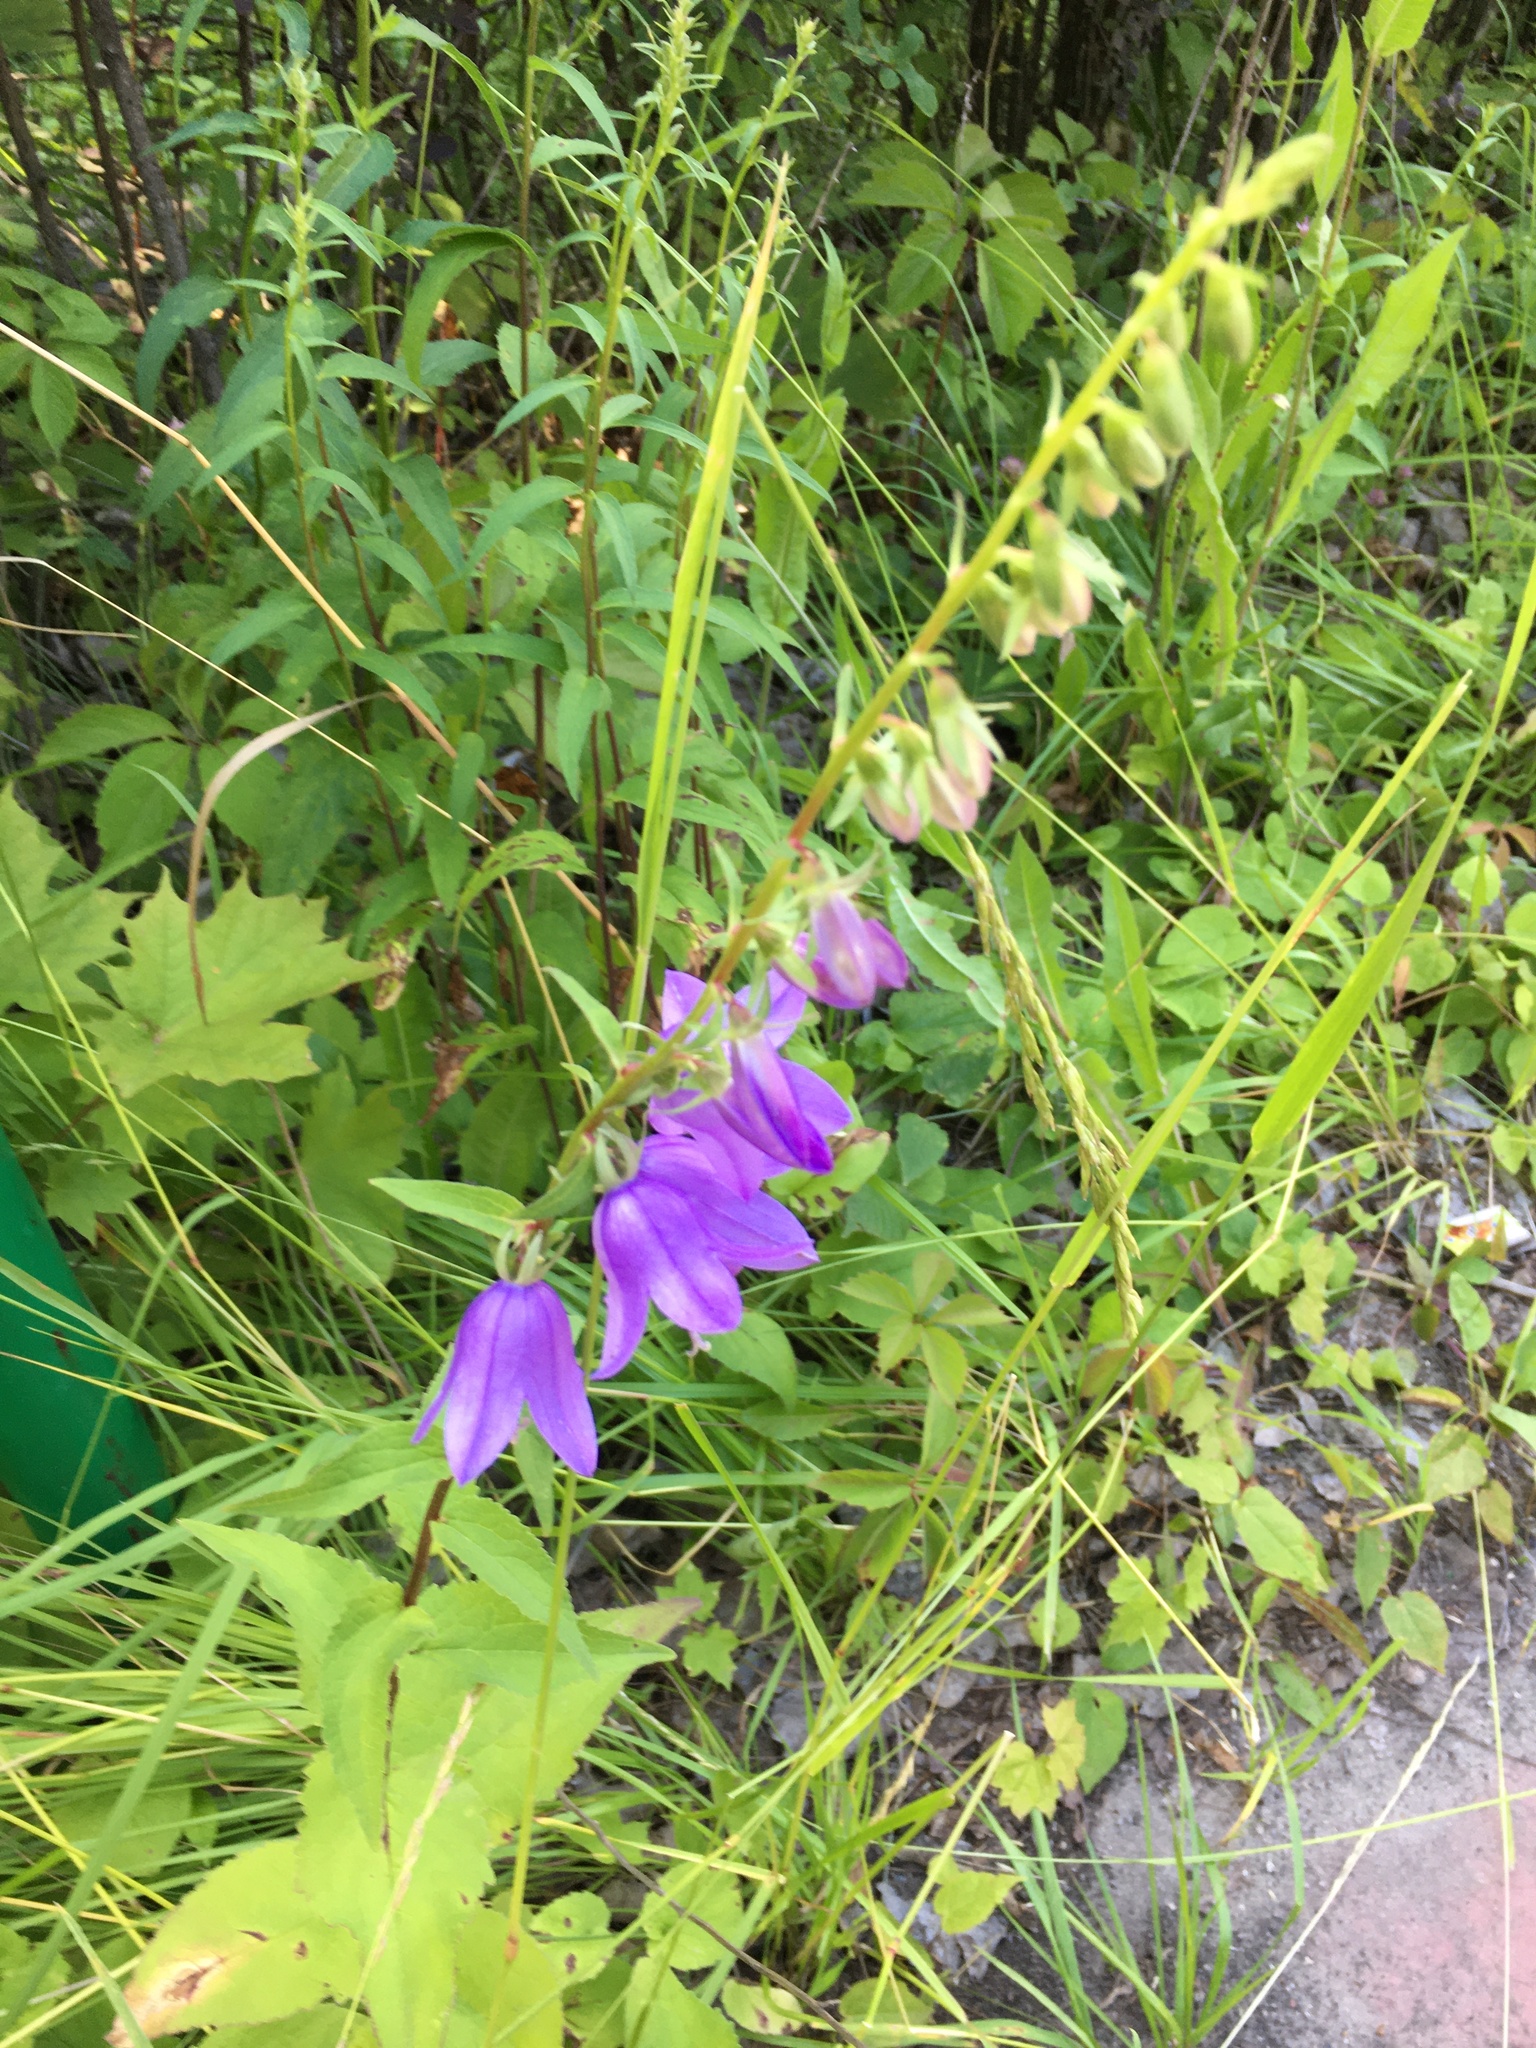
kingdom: Plantae
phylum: Tracheophyta
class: Magnoliopsida
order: Asterales
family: Campanulaceae
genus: Campanula
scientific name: Campanula rapunculoides
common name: Creeping bellflower
